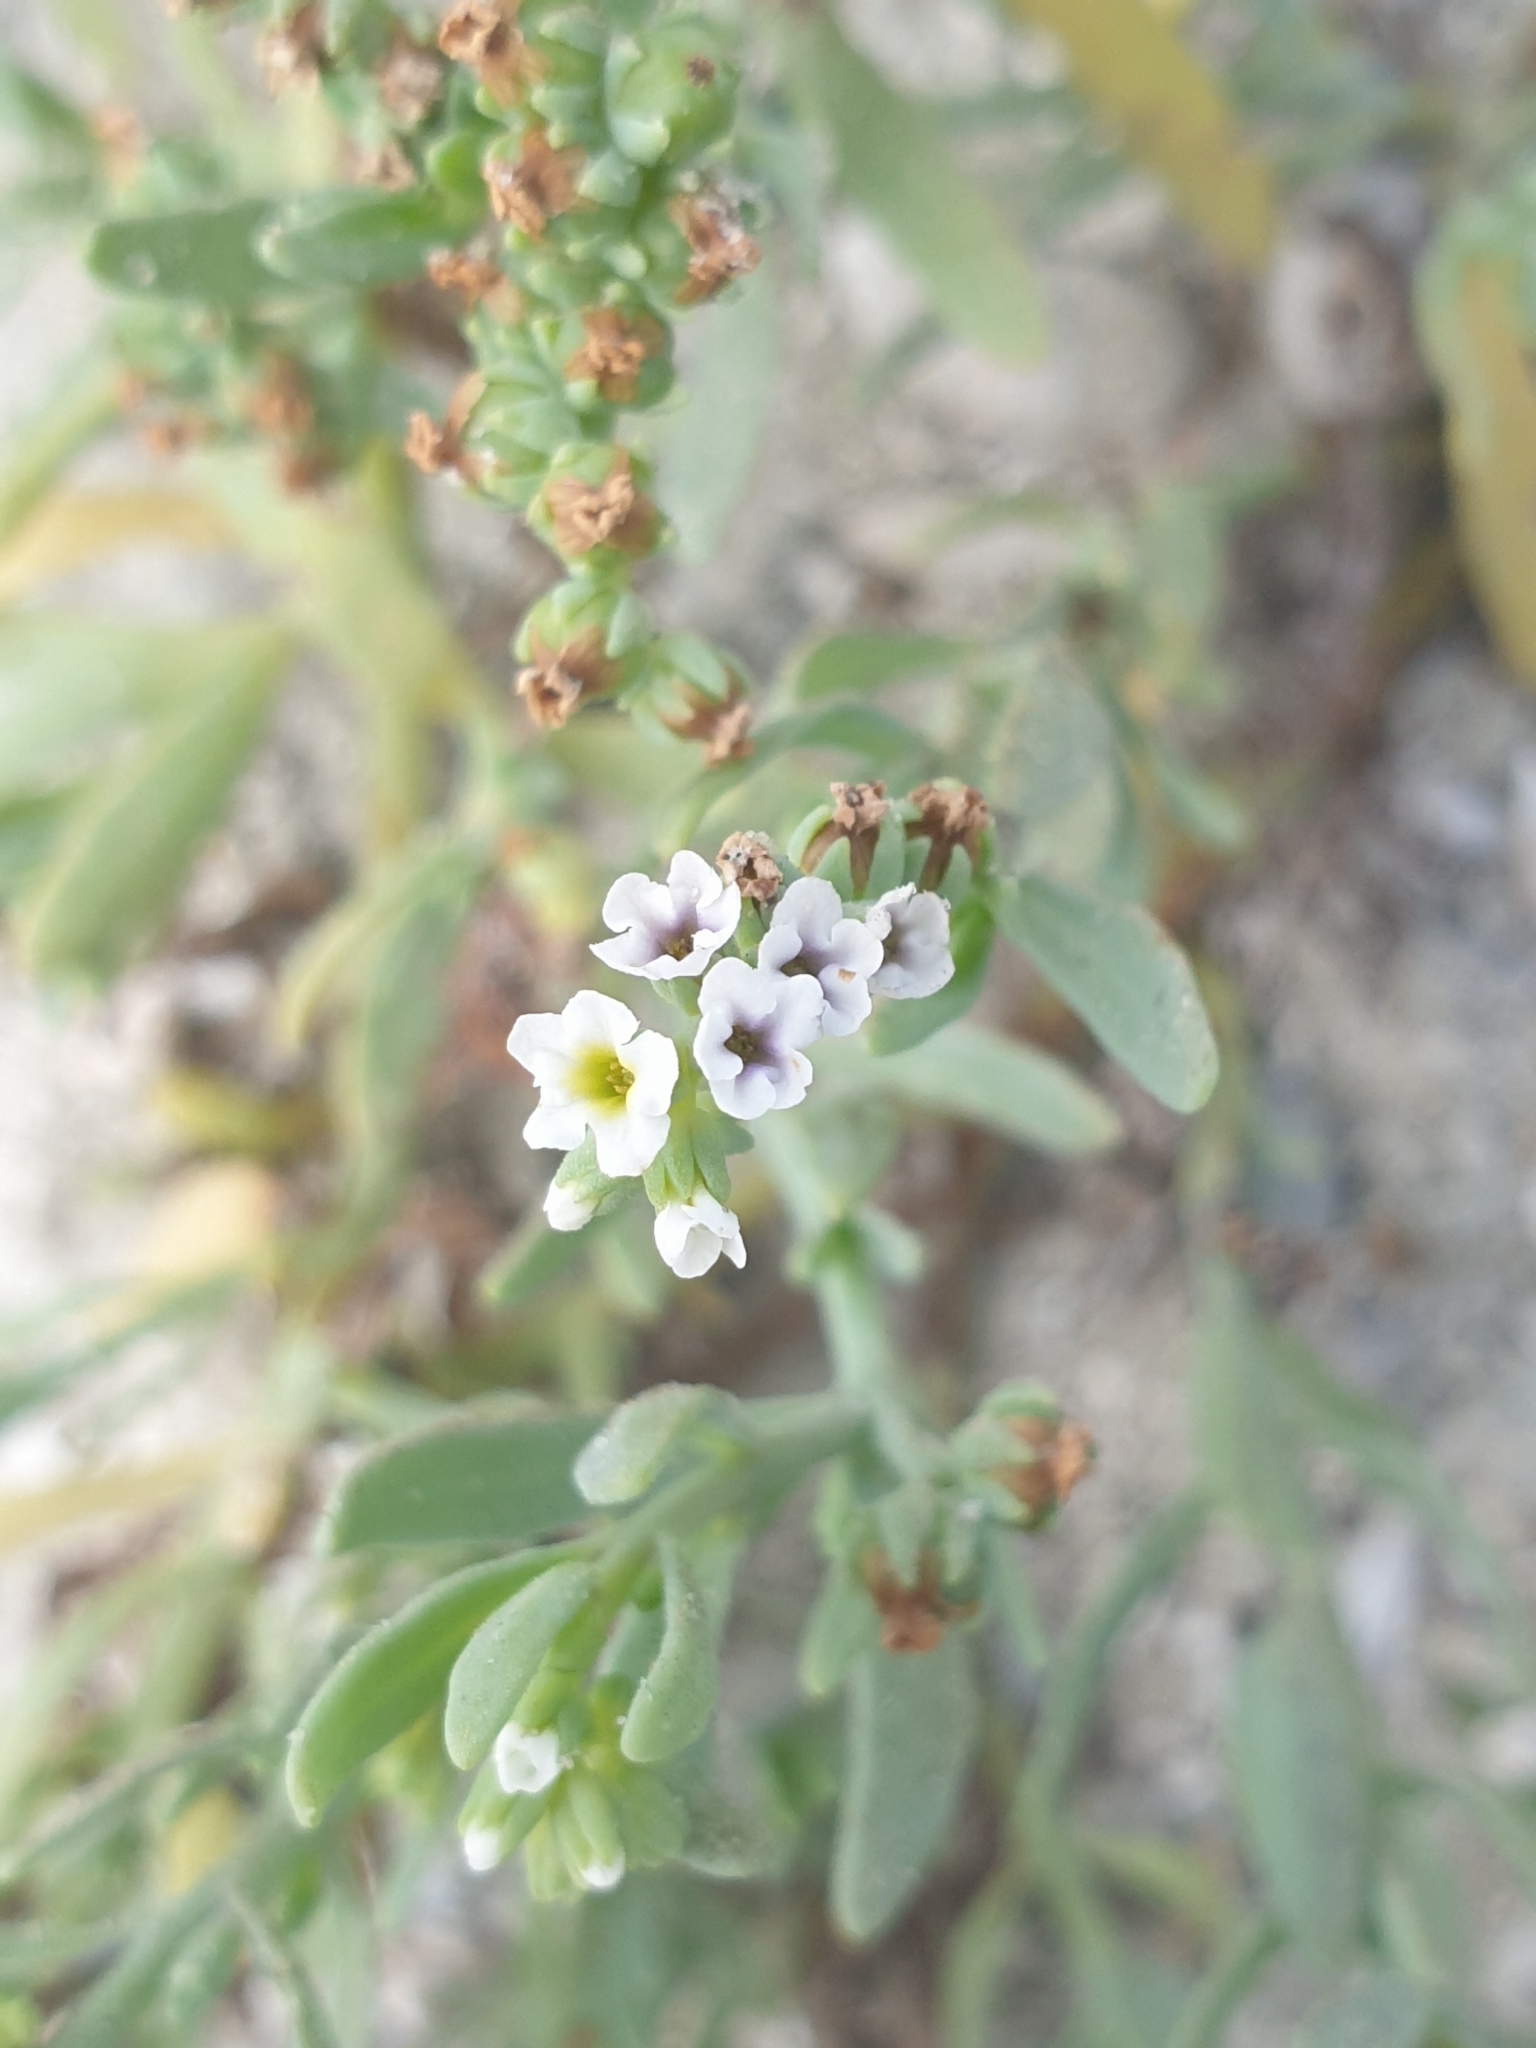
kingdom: Plantae
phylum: Tracheophyta
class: Magnoliopsida
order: Boraginales
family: Heliotropiaceae
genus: Heliotropium
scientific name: Heliotropium curassavicum
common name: Seaside heliotrope
